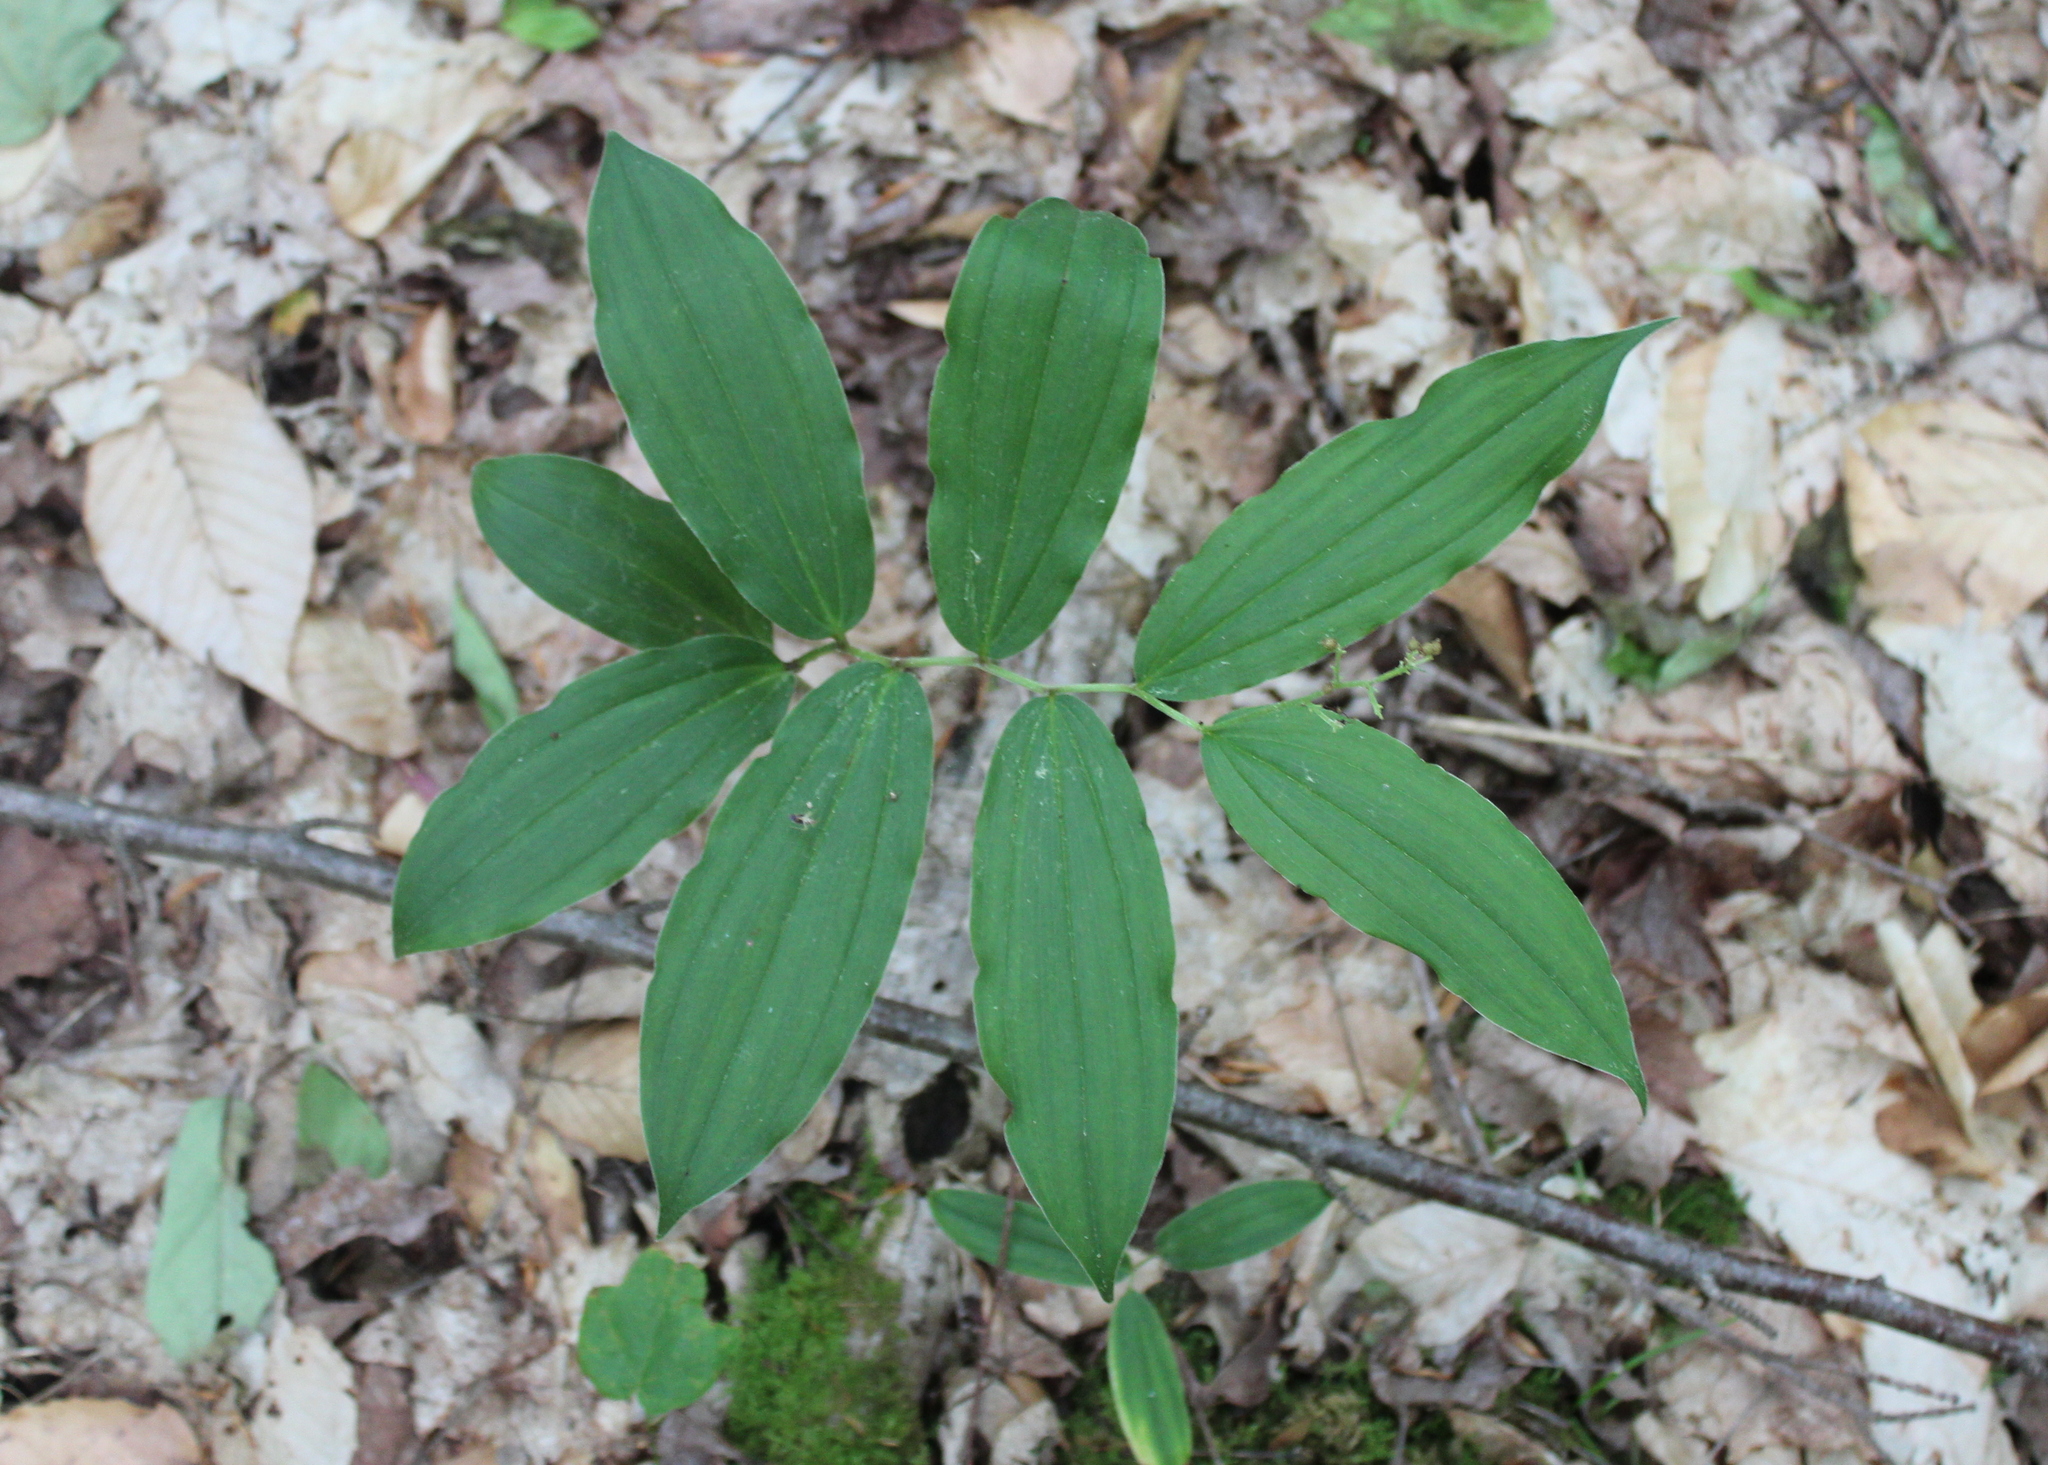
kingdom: Plantae
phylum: Tracheophyta
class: Liliopsida
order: Asparagales
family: Asparagaceae
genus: Maianthemum
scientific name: Maianthemum racemosum
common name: False spikenard
